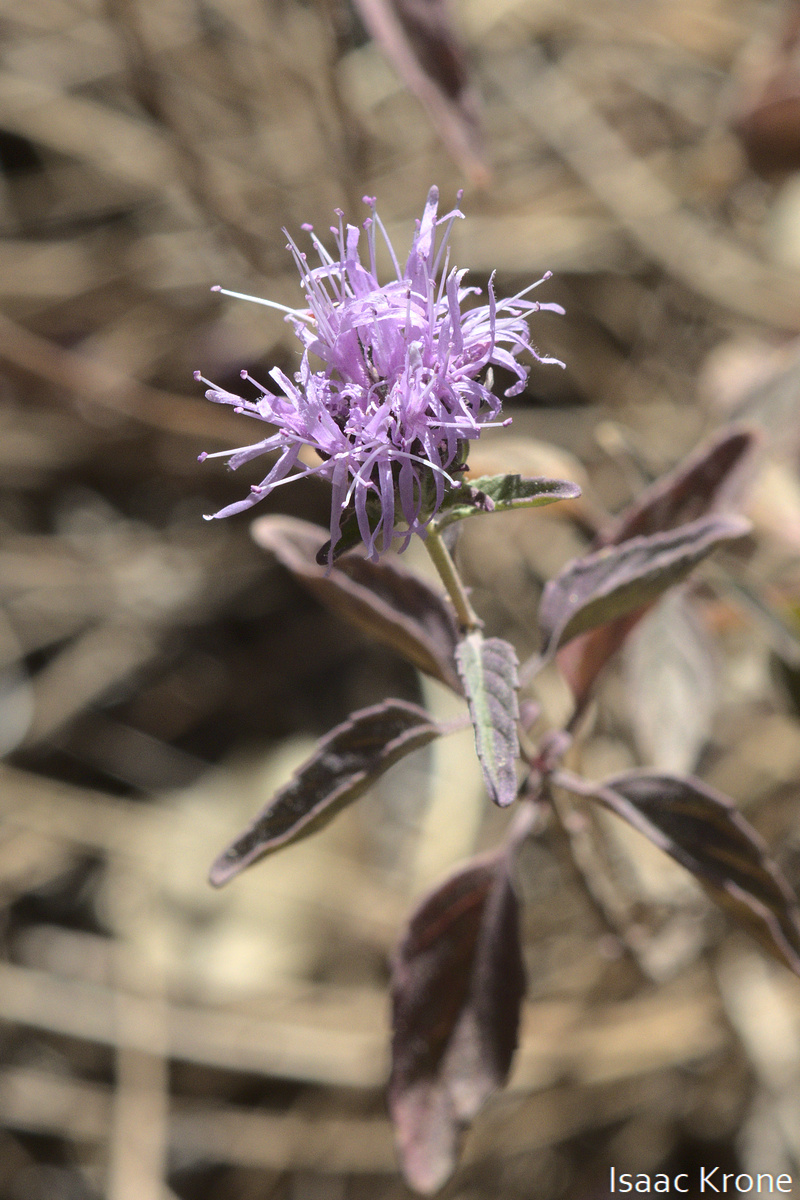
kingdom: Plantae
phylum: Tracheophyta
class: Magnoliopsida
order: Lamiales
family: Lamiaceae
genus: Monardella
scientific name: Monardella odoratissima
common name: Pacific monardella
